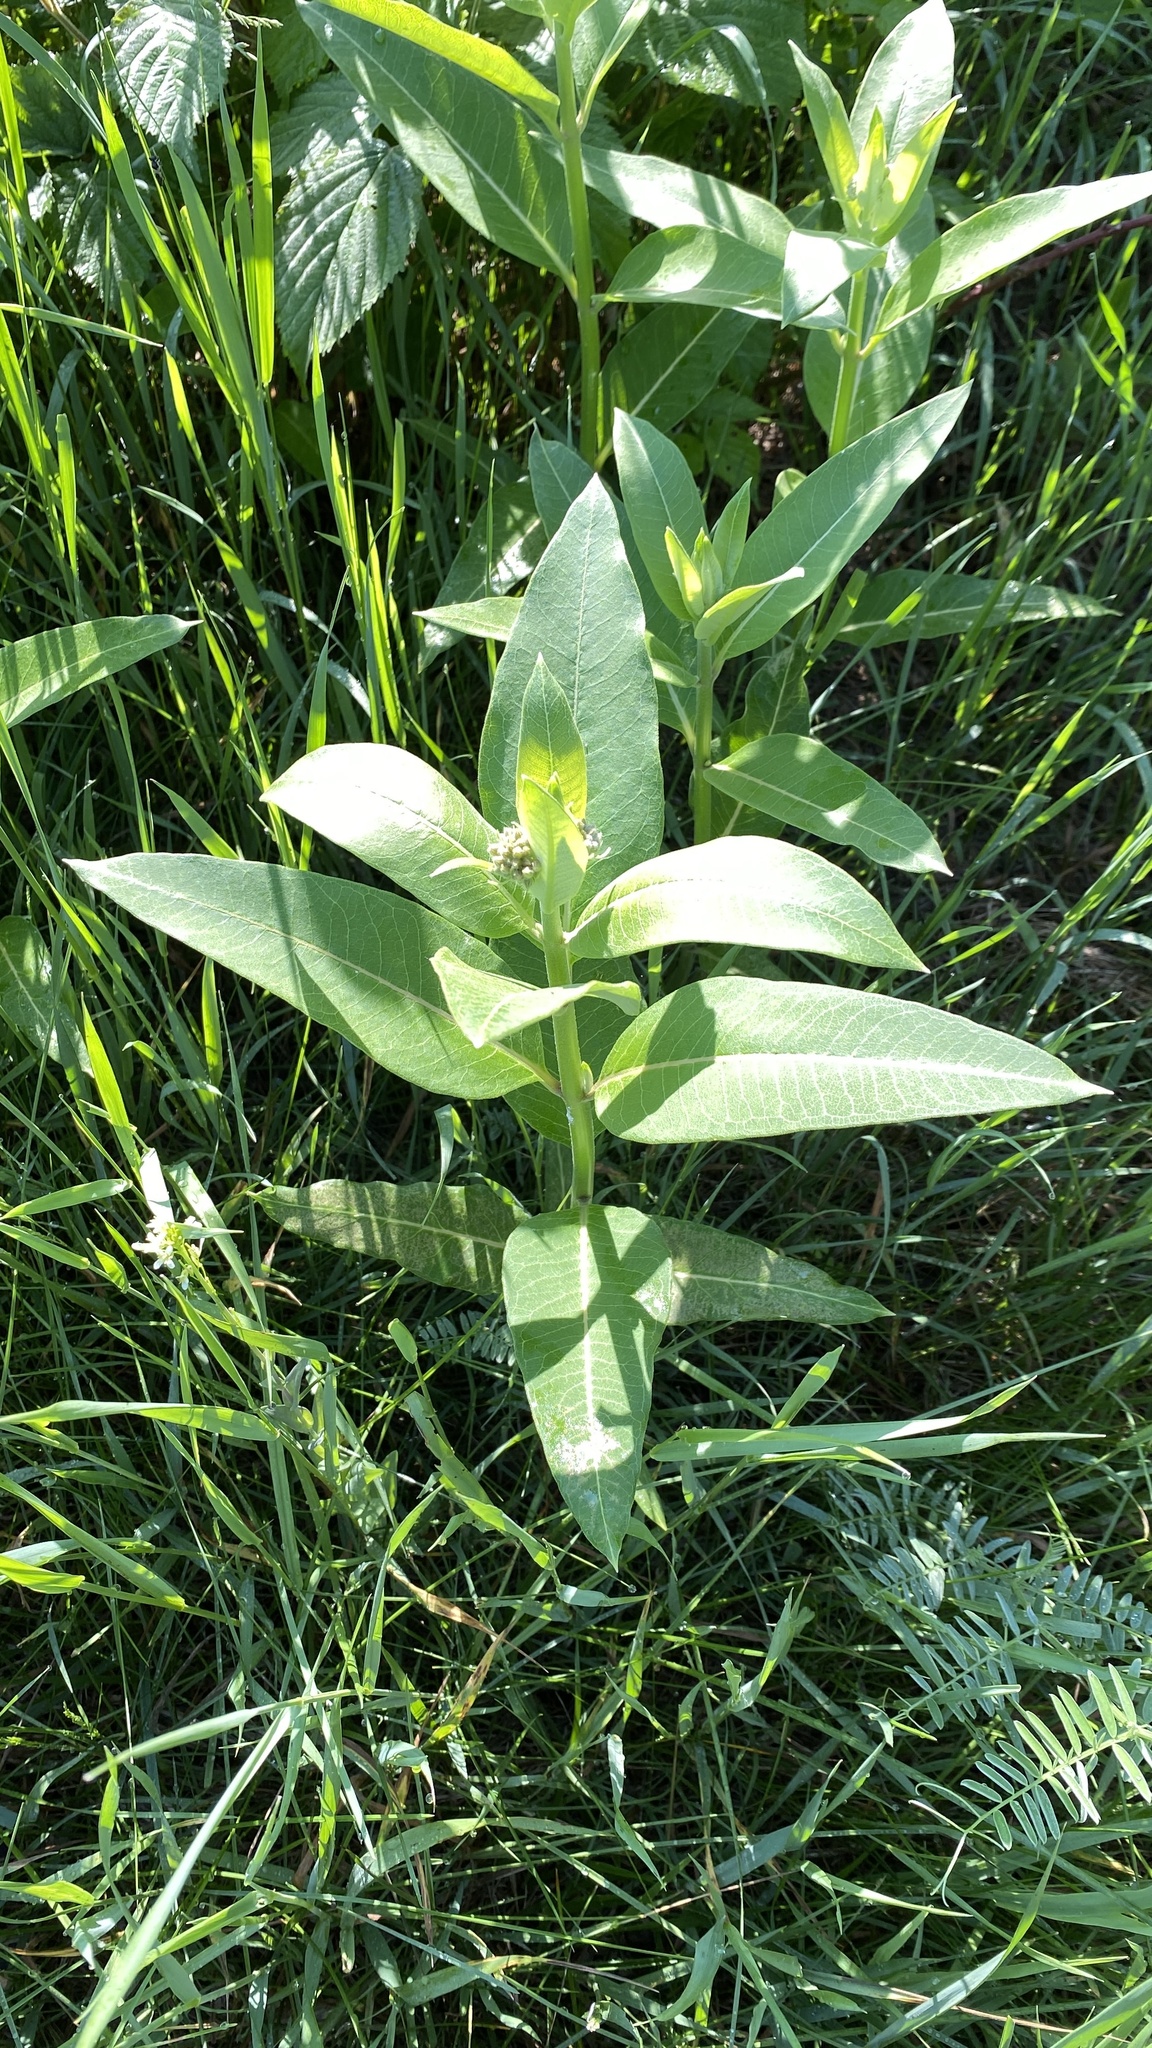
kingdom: Plantae
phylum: Tracheophyta
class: Magnoliopsida
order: Gentianales
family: Apocynaceae
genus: Asclepias
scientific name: Asclepias syriaca
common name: Common milkweed
